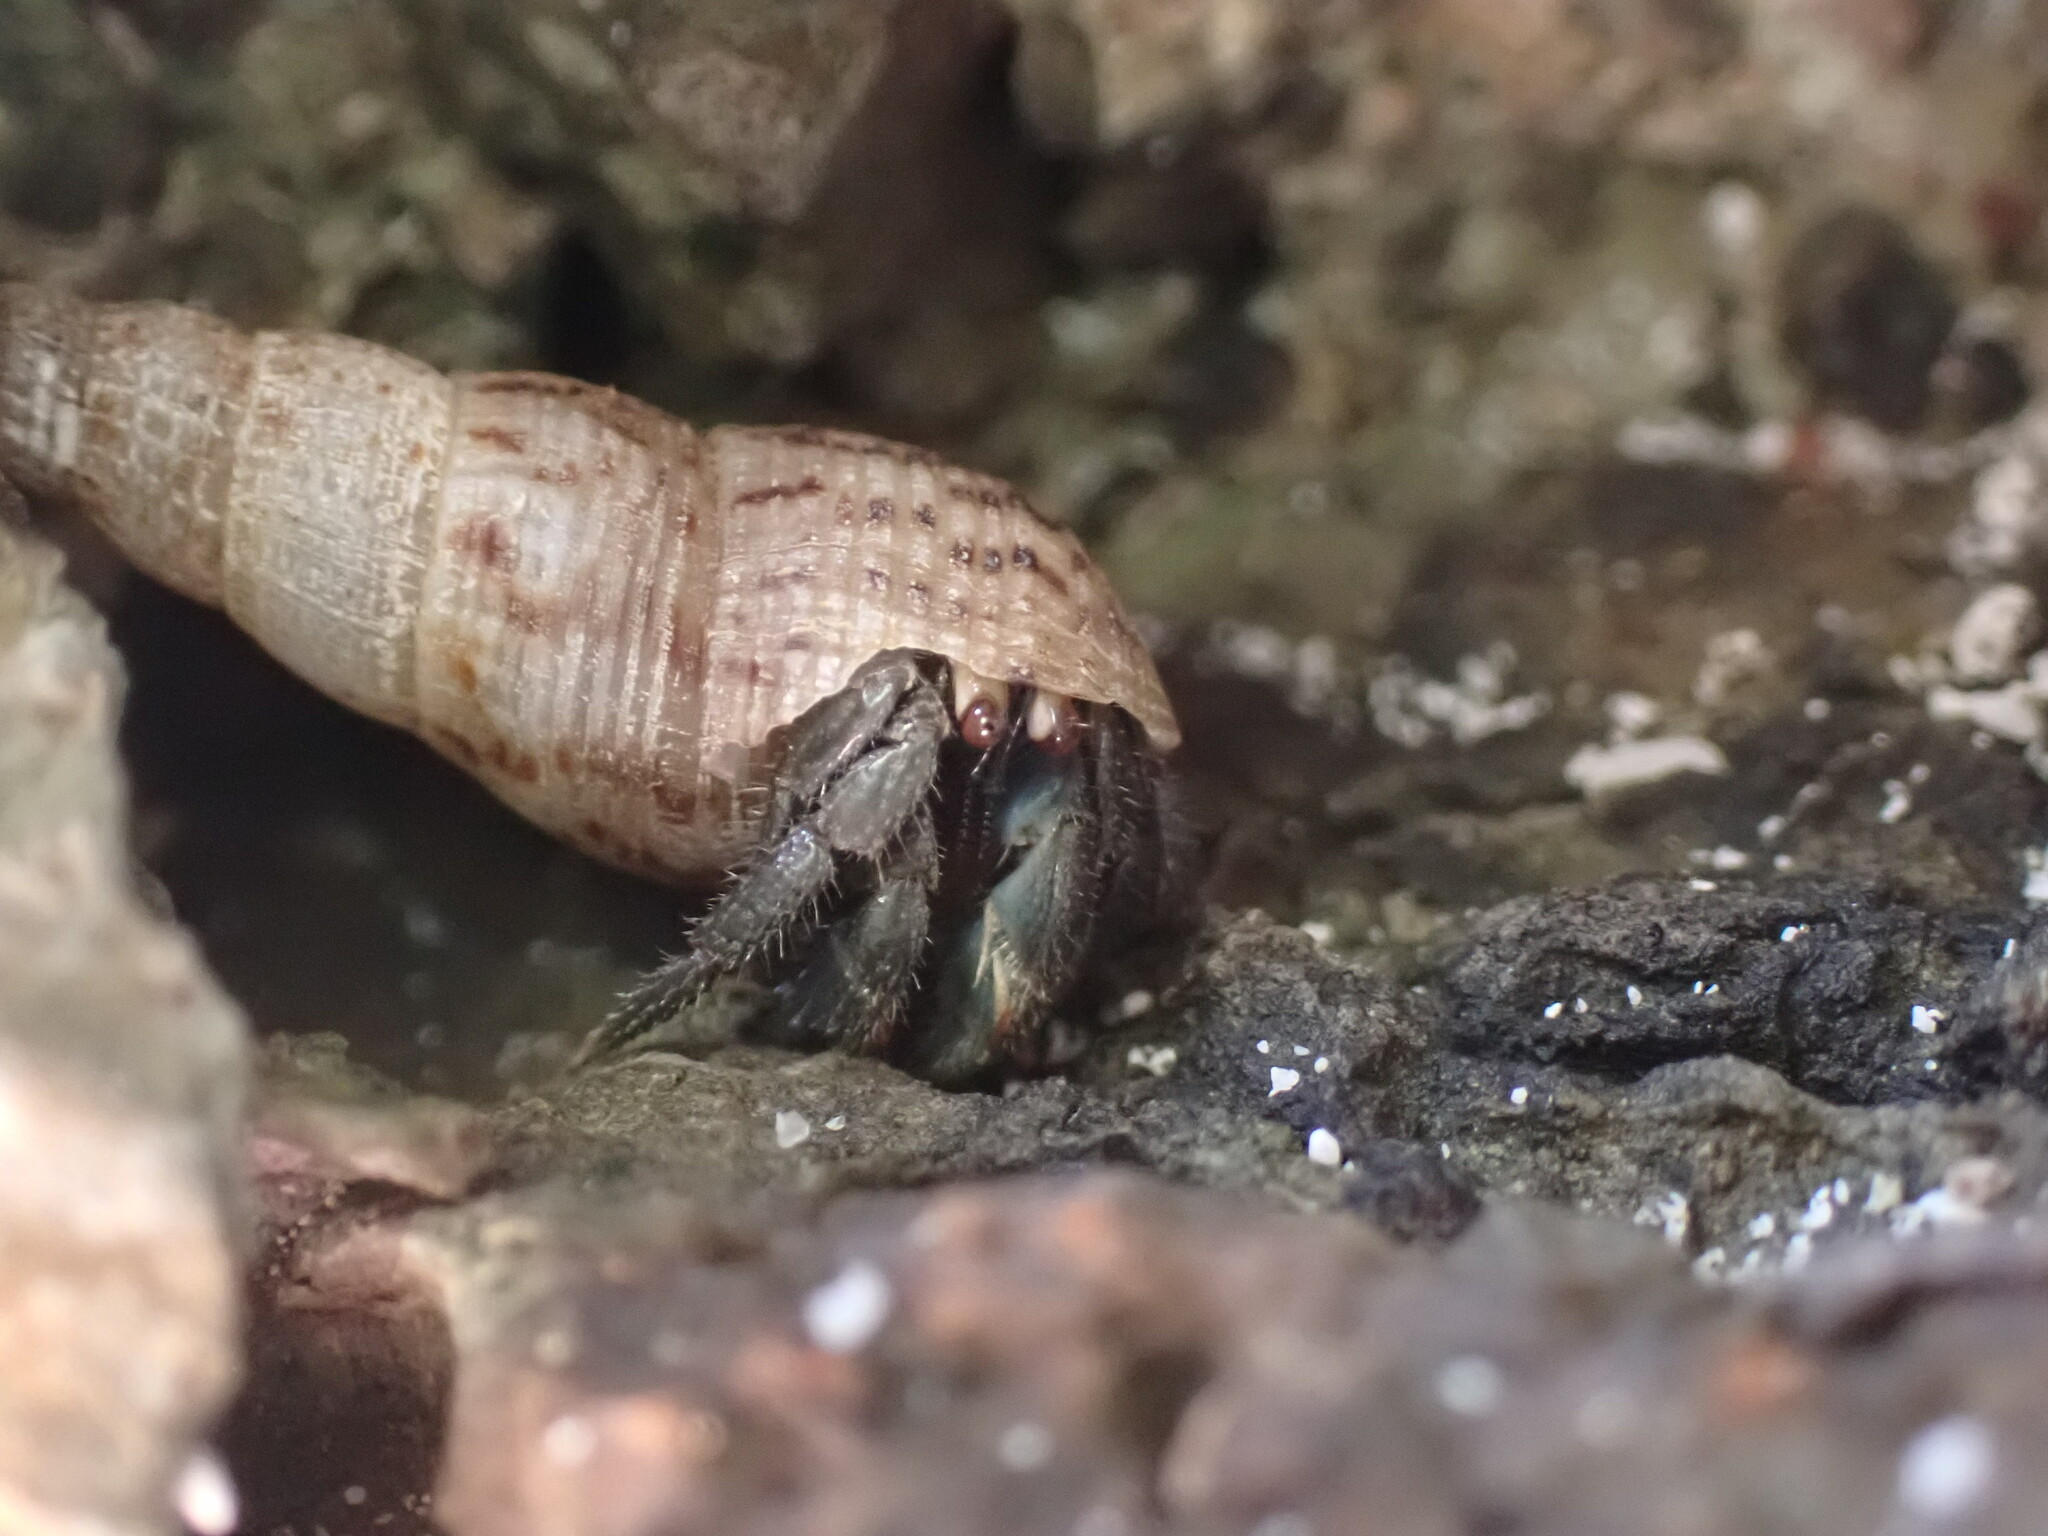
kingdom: Animalia
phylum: Arthropoda
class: Malacostraca
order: Decapoda
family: Coenobitidae
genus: Coenobita
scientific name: Coenobita compressus
